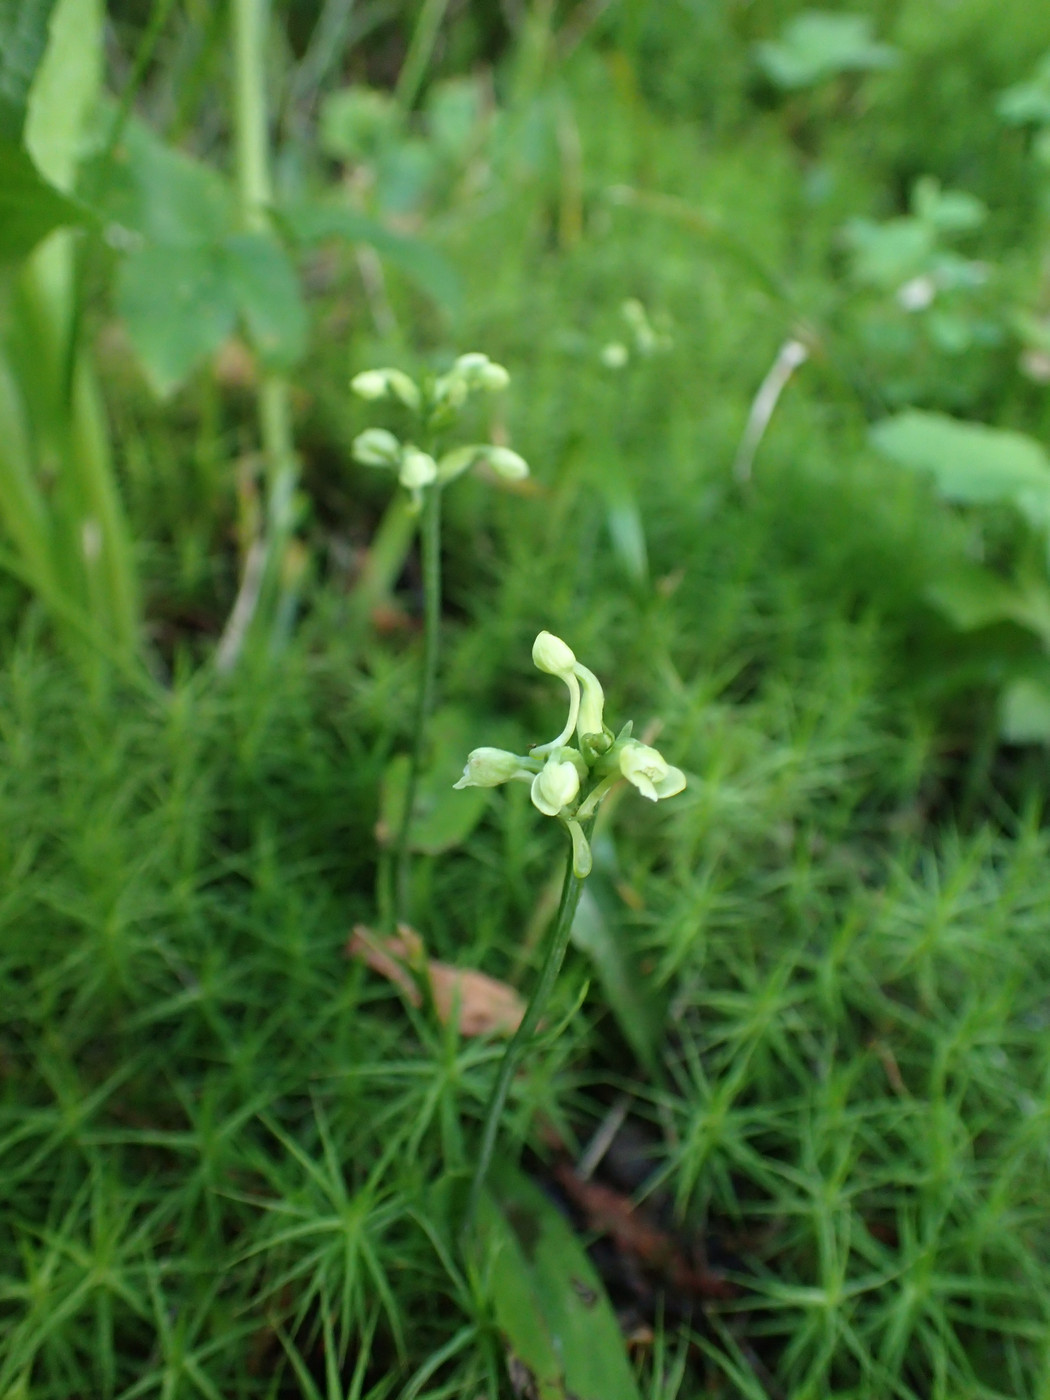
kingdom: Plantae
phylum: Tracheophyta
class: Liliopsida
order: Asparagales
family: Orchidaceae
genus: Platanthera
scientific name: Platanthera clavellata
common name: Club-spur orchid
